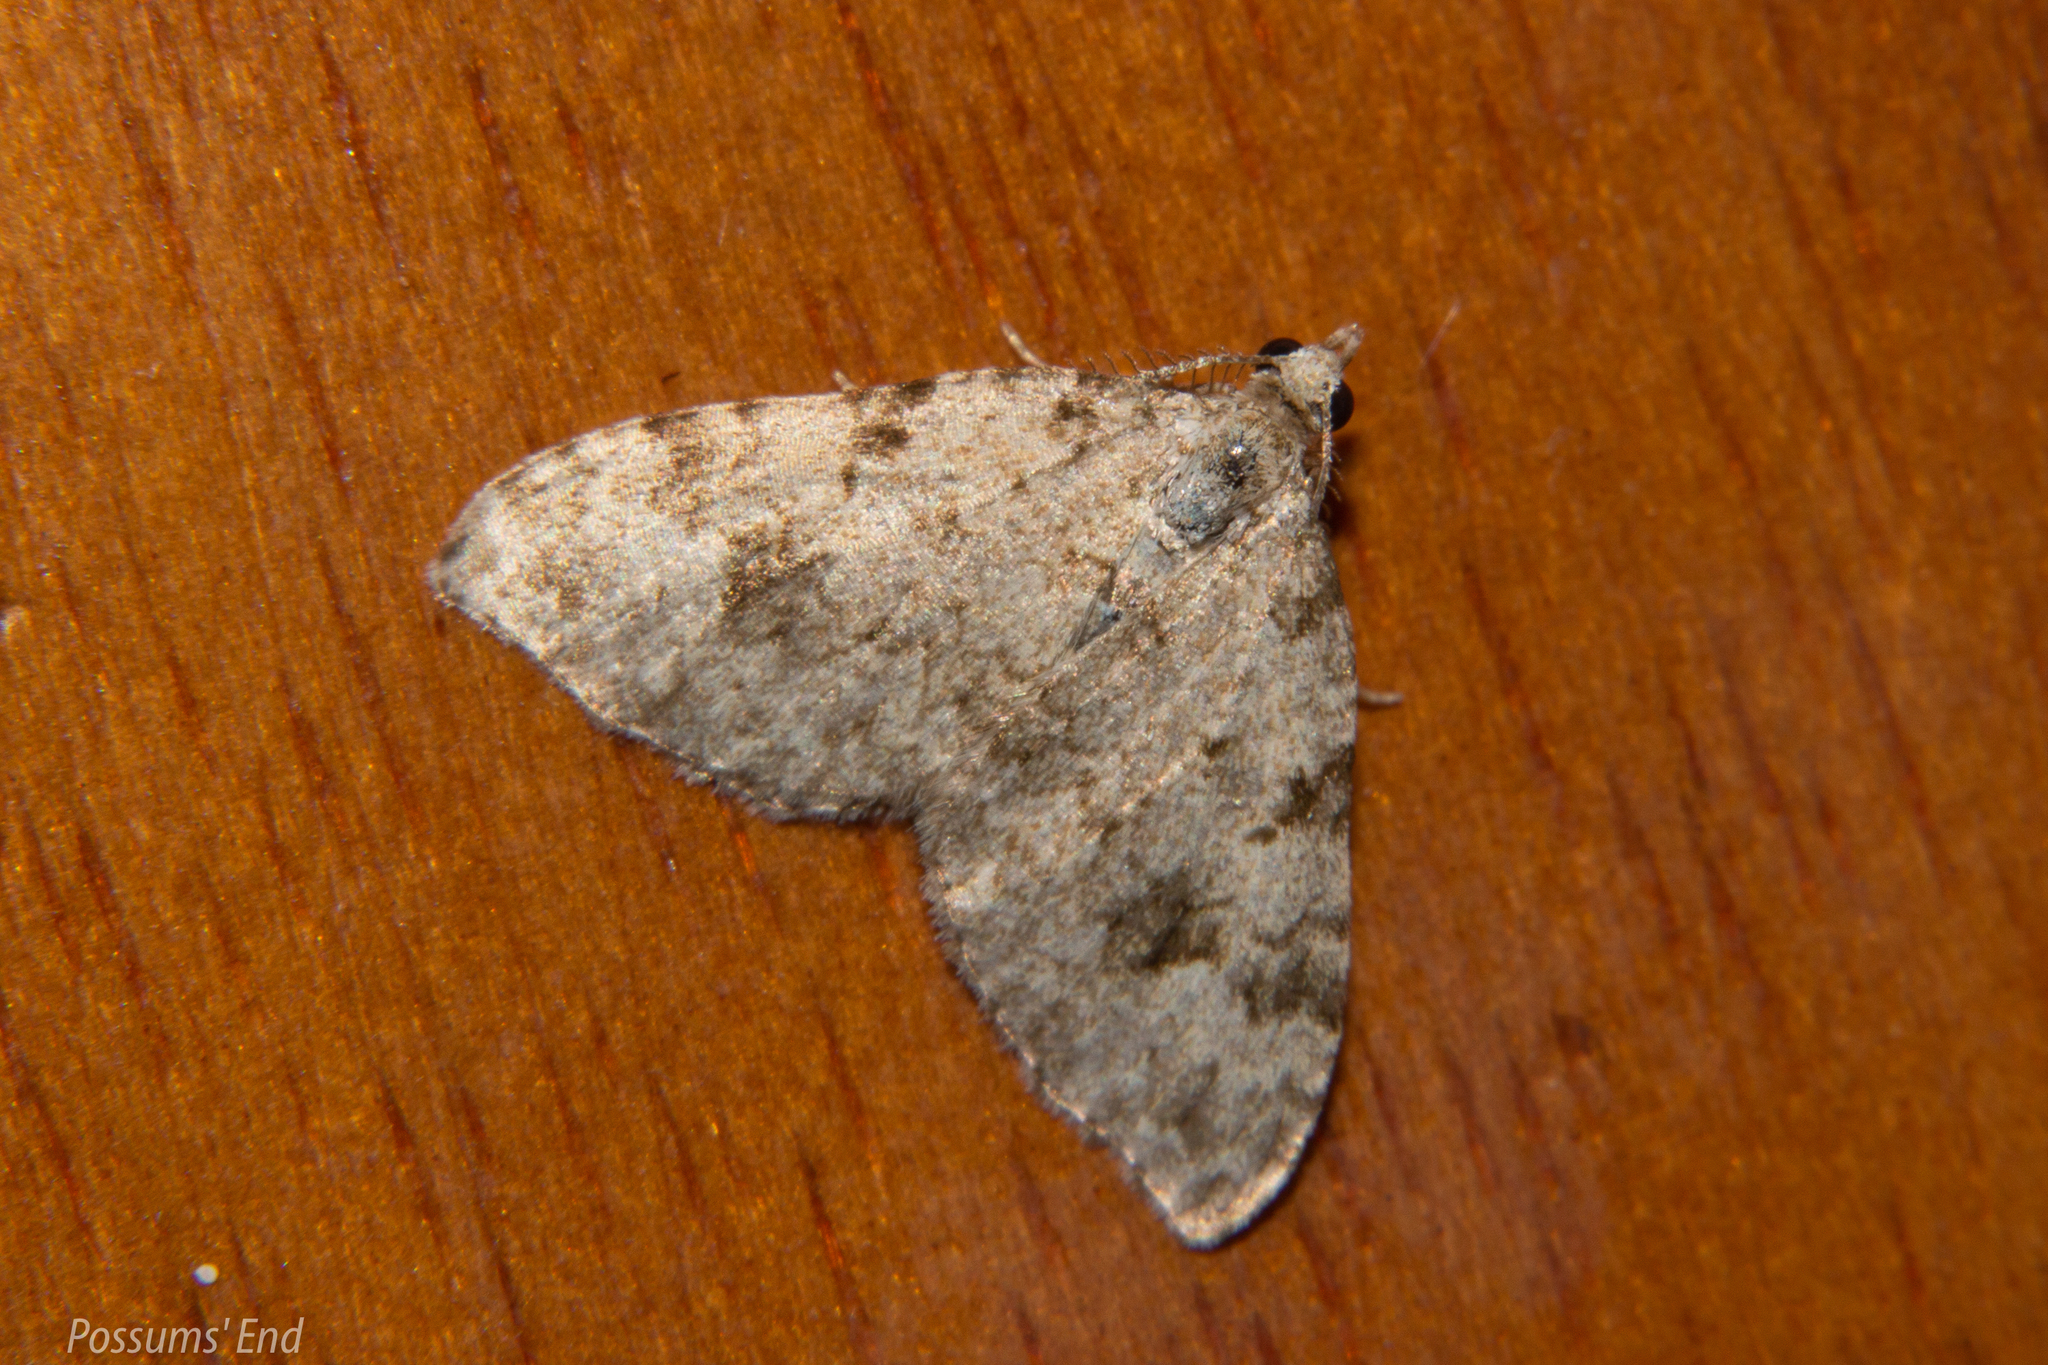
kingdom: Animalia
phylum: Arthropoda
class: Insecta
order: Lepidoptera
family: Geometridae
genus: Helastia
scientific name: Helastia cinerearia
